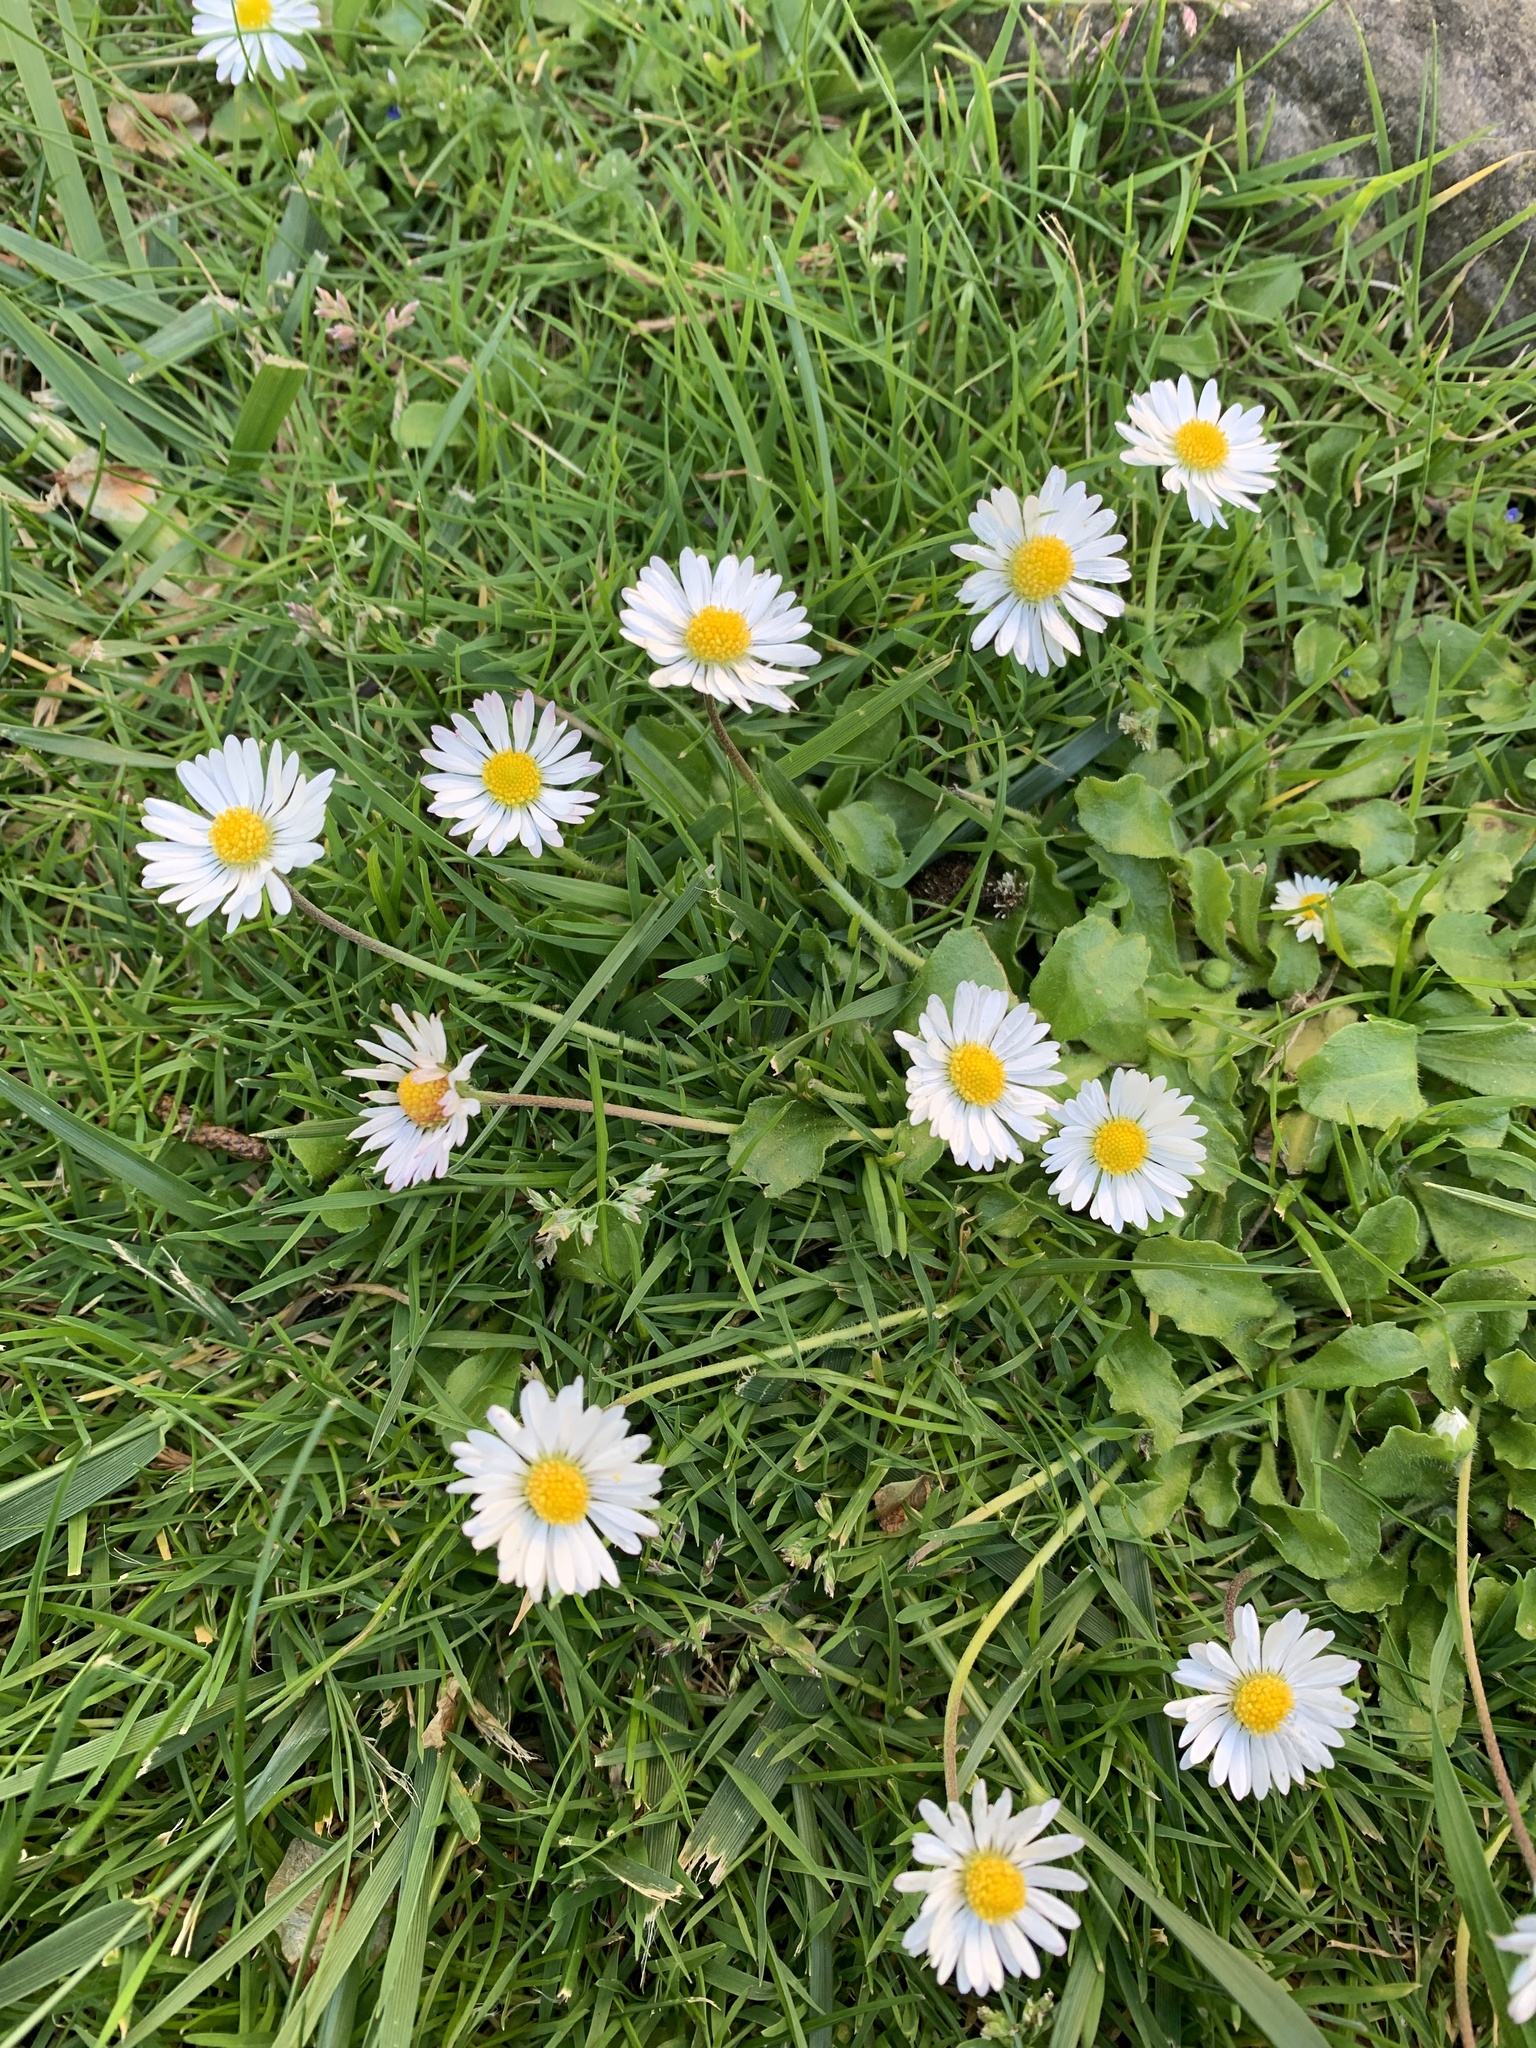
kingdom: Plantae
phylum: Tracheophyta
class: Magnoliopsida
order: Asterales
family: Asteraceae
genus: Bellis
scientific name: Bellis perennis
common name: Lawndaisy
